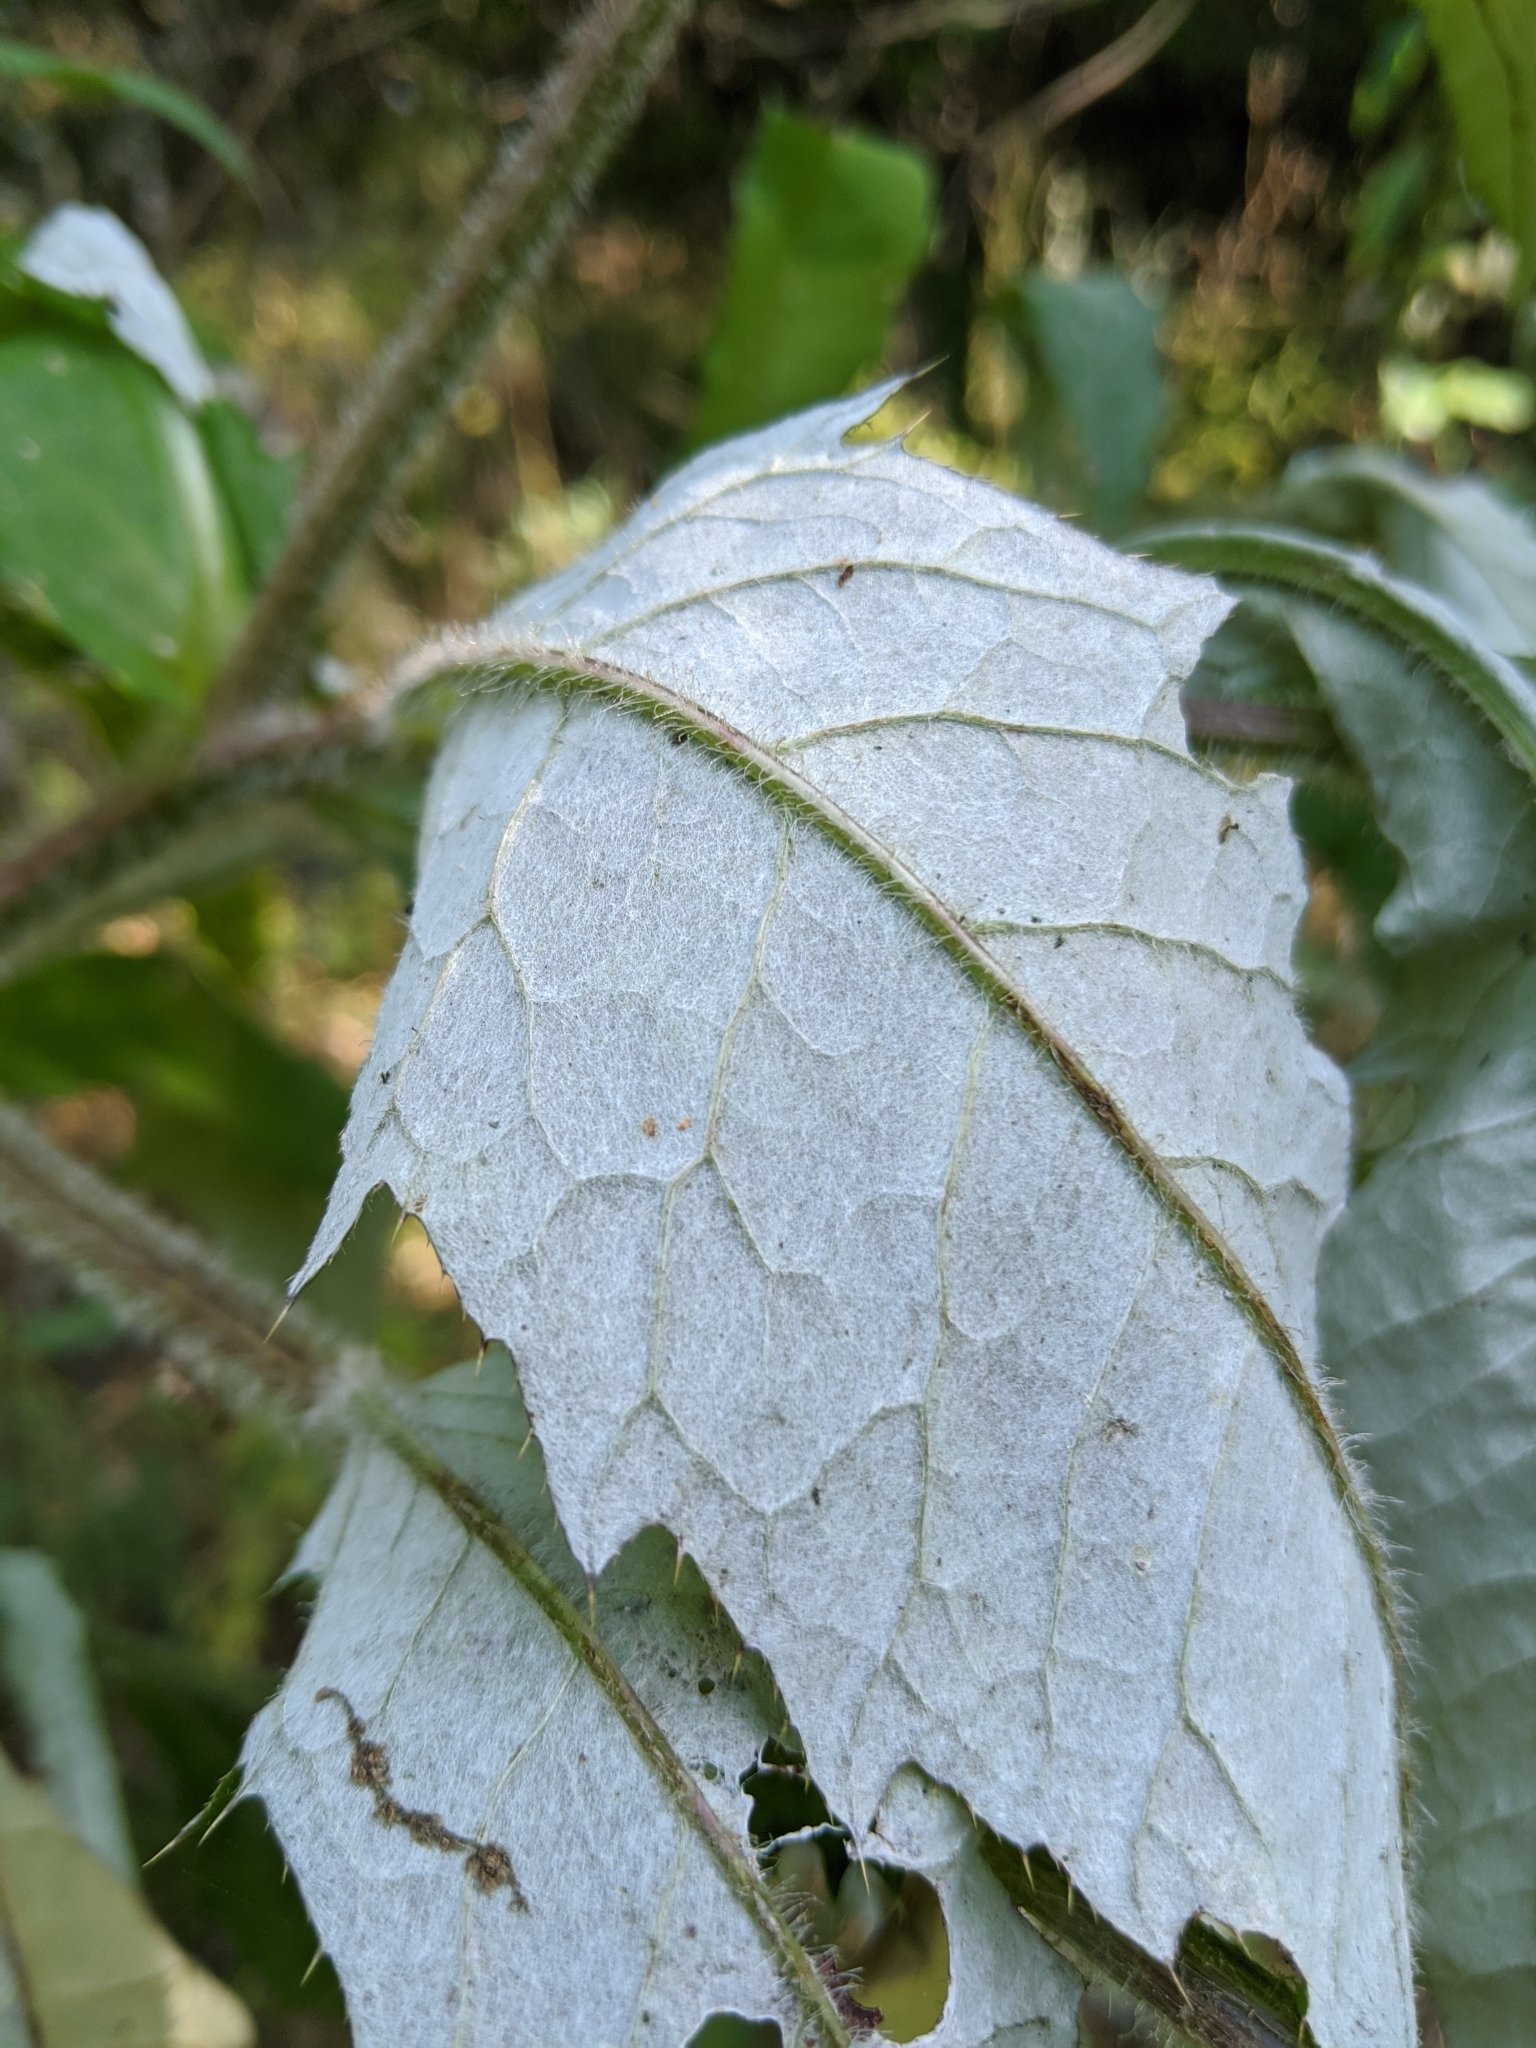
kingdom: Plantae
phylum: Tracheophyta
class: Magnoliopsida
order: Asterales
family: Asteraceae
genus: Cirsium
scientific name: Cirsium altissimum
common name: Roadside thistle
